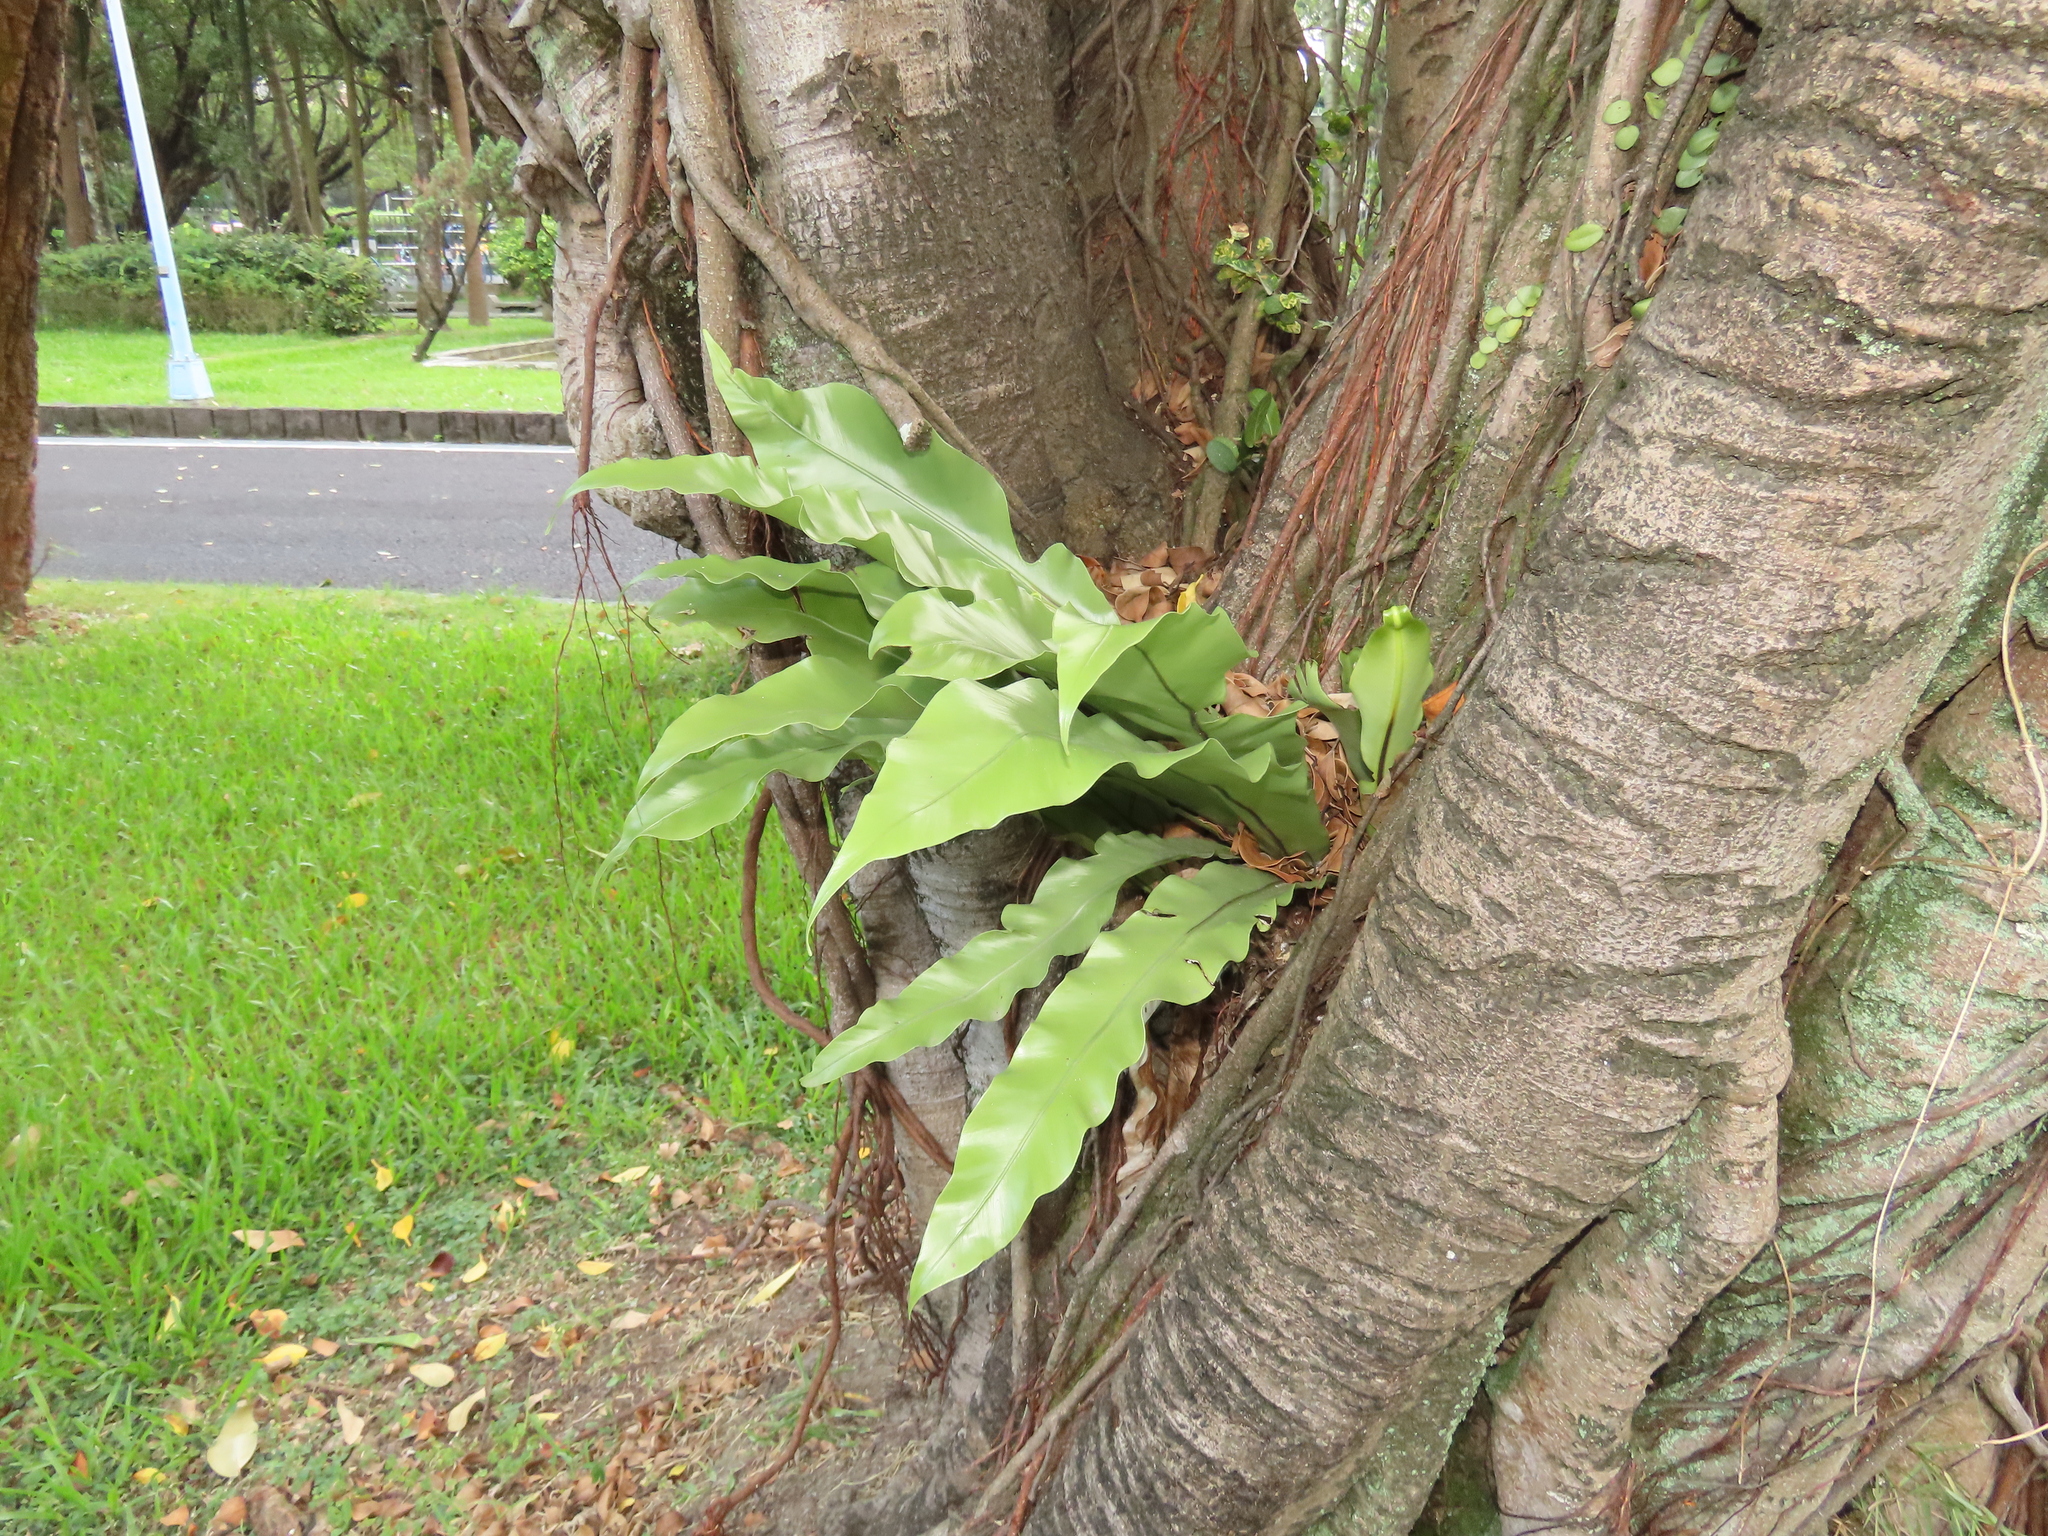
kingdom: Plantae
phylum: Tracheophyta
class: Polypodiopsida
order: Polypodiales
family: Aspleniaceae
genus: Asplenium
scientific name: Asplenium nidus
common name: Bird's-nest fern
